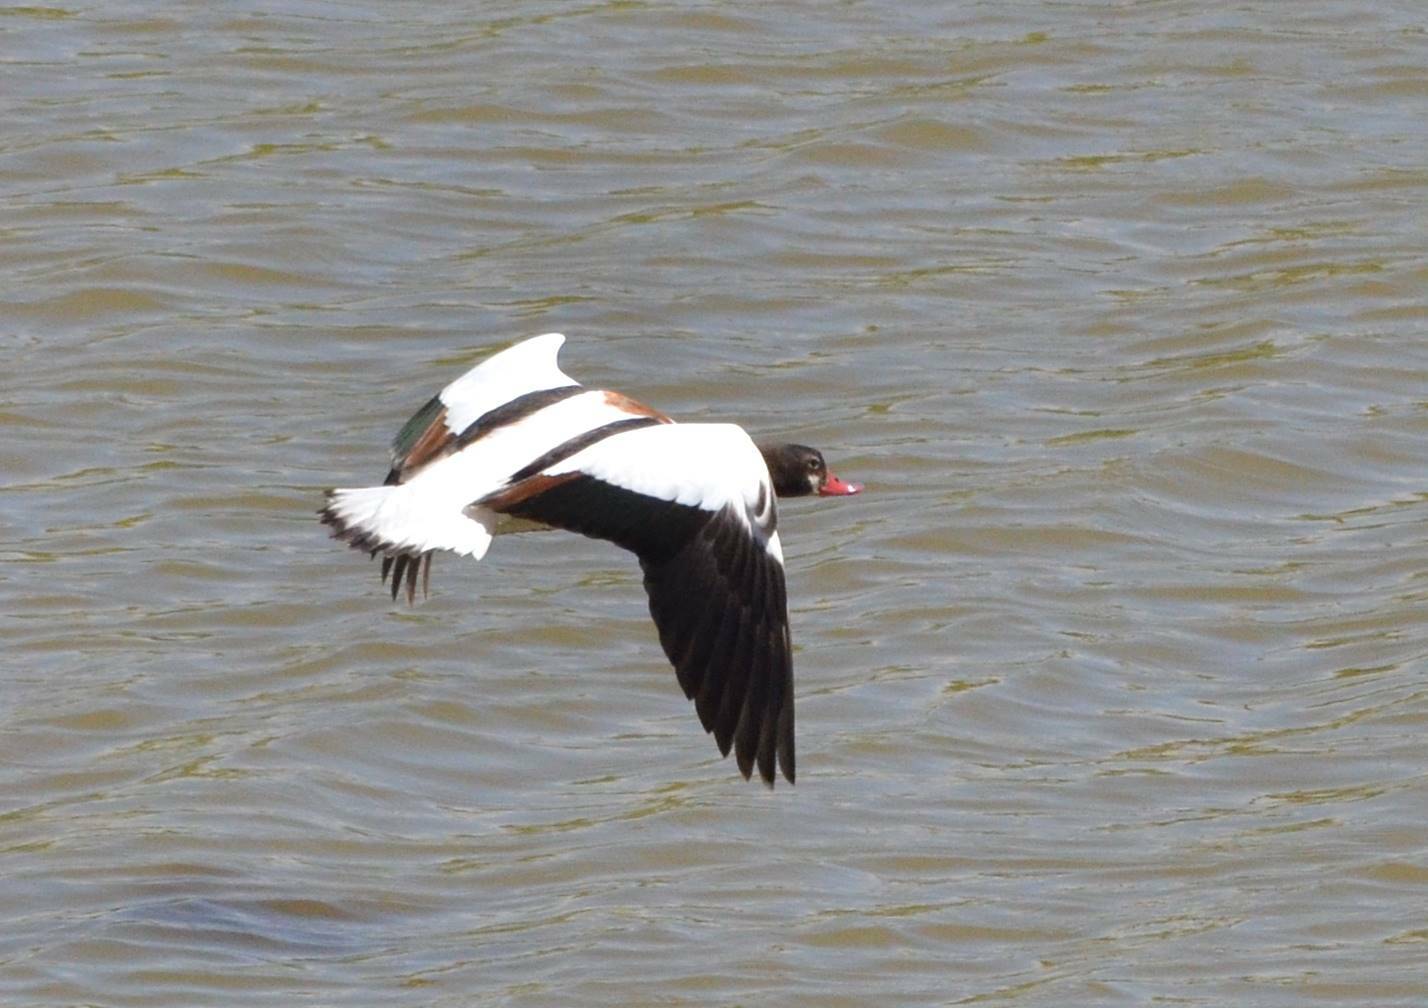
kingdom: Animalia
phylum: Chordata
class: Aves
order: Anseriformes
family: Anatidae
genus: Tadorna
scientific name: Tadorna tadorna
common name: Common shelduck
